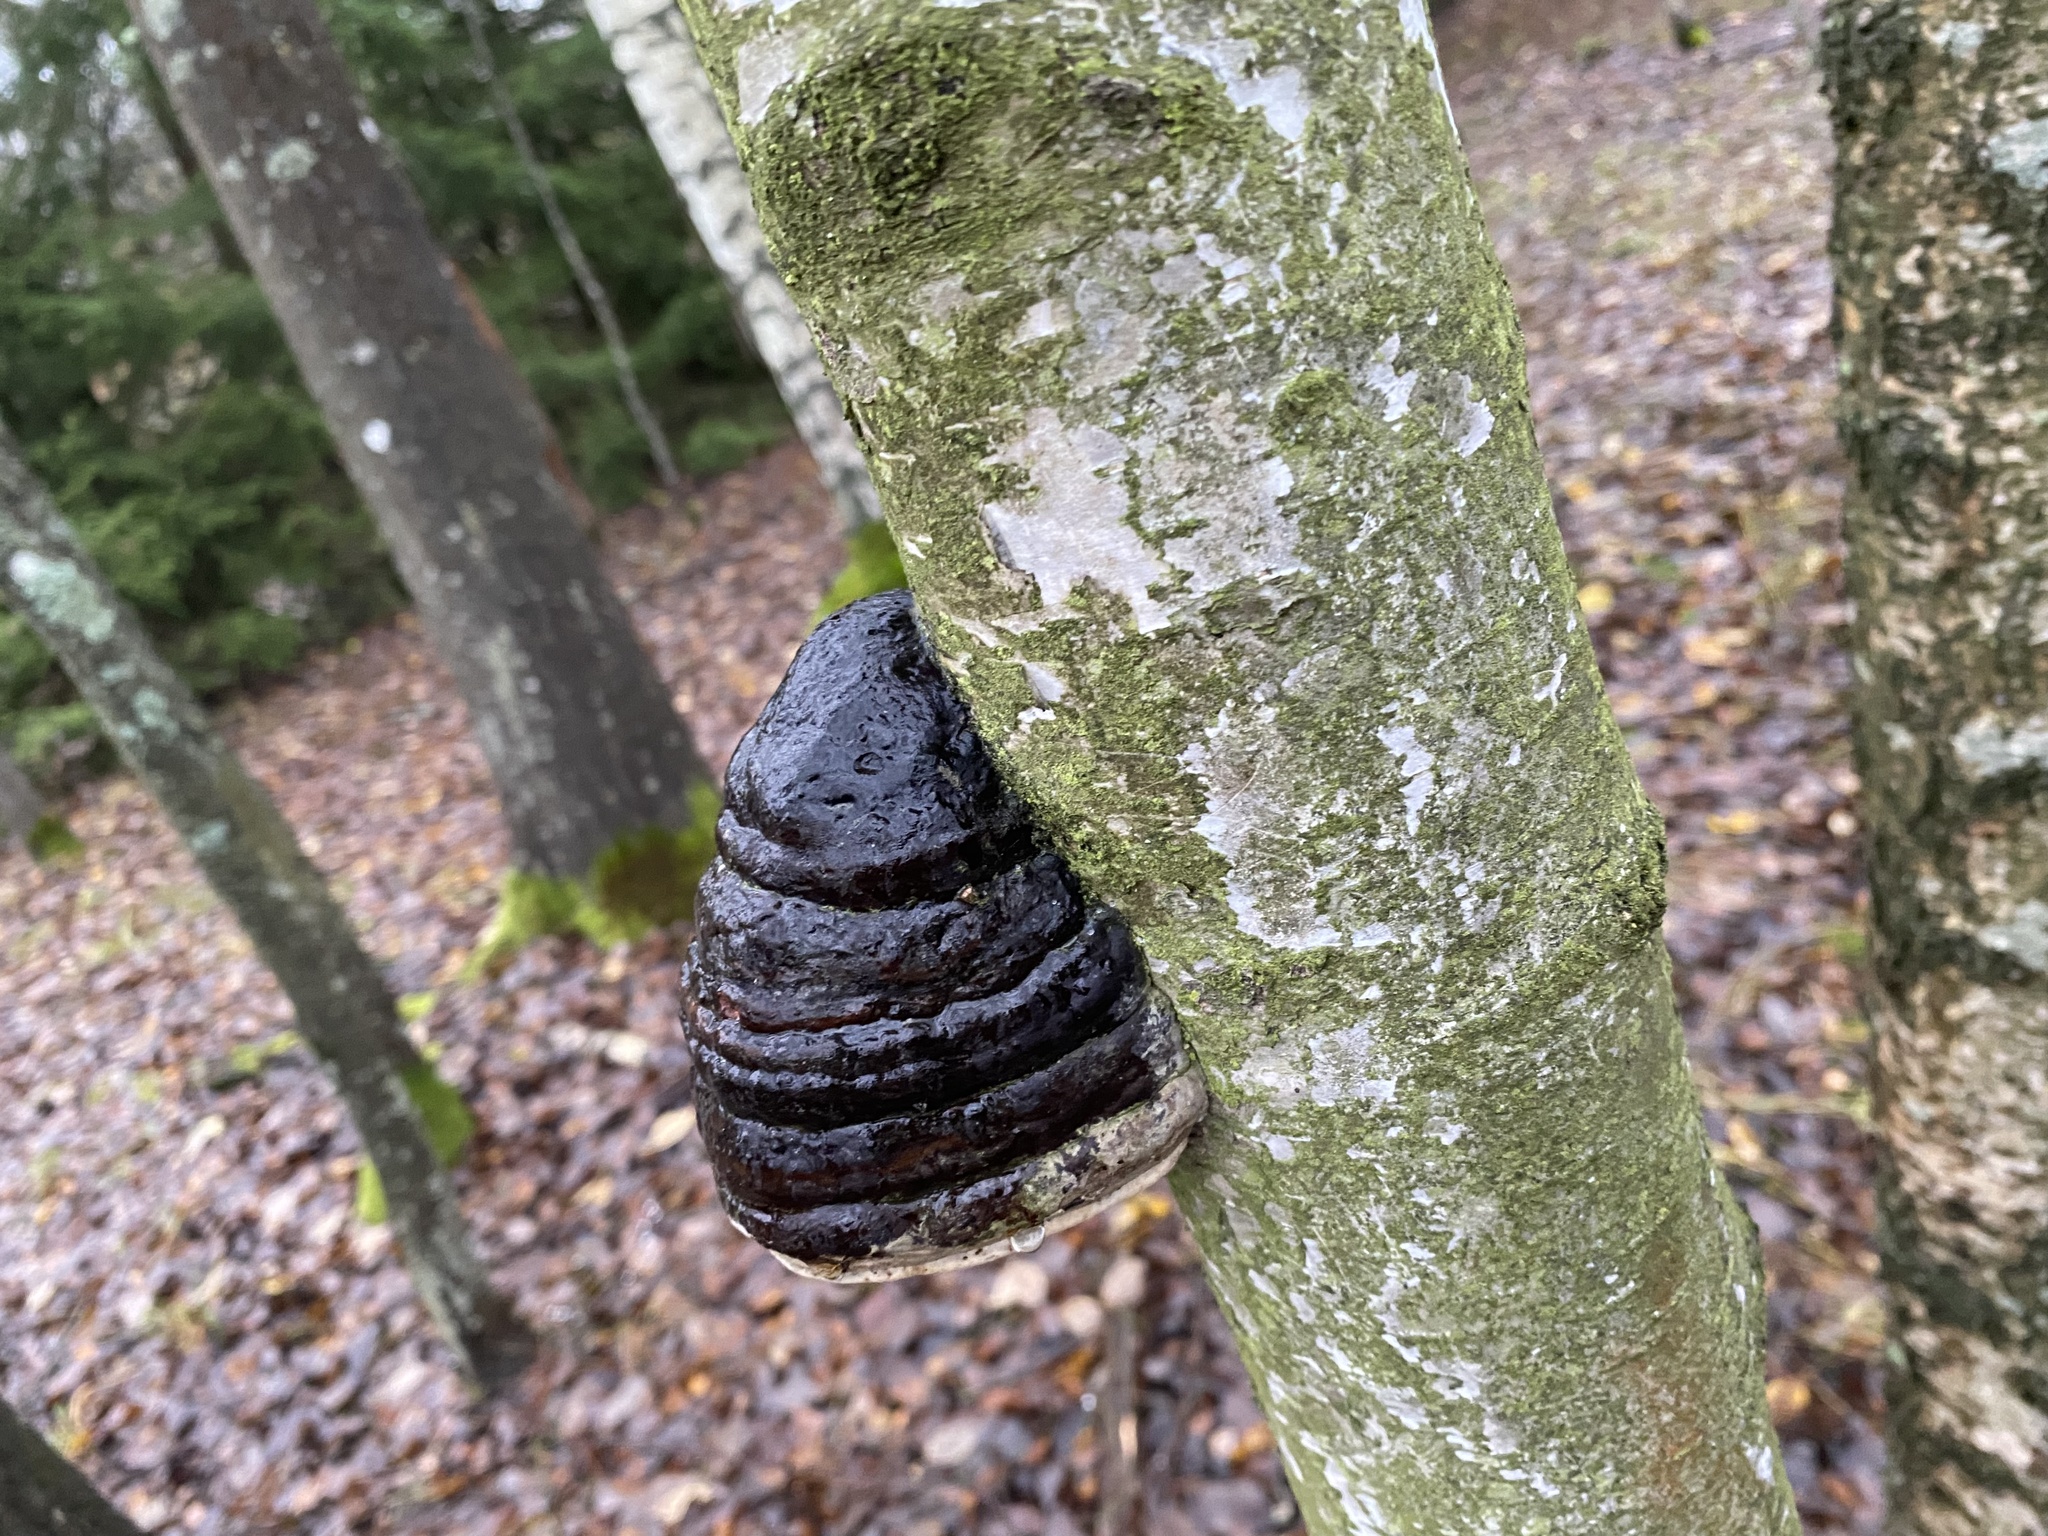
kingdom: Fungi
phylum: Basidiomycota
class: Agaricomycetes
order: Polyporales
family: Polyporaceae
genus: Fomes
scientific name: Fomes fomentarius
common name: Hoof fungus
